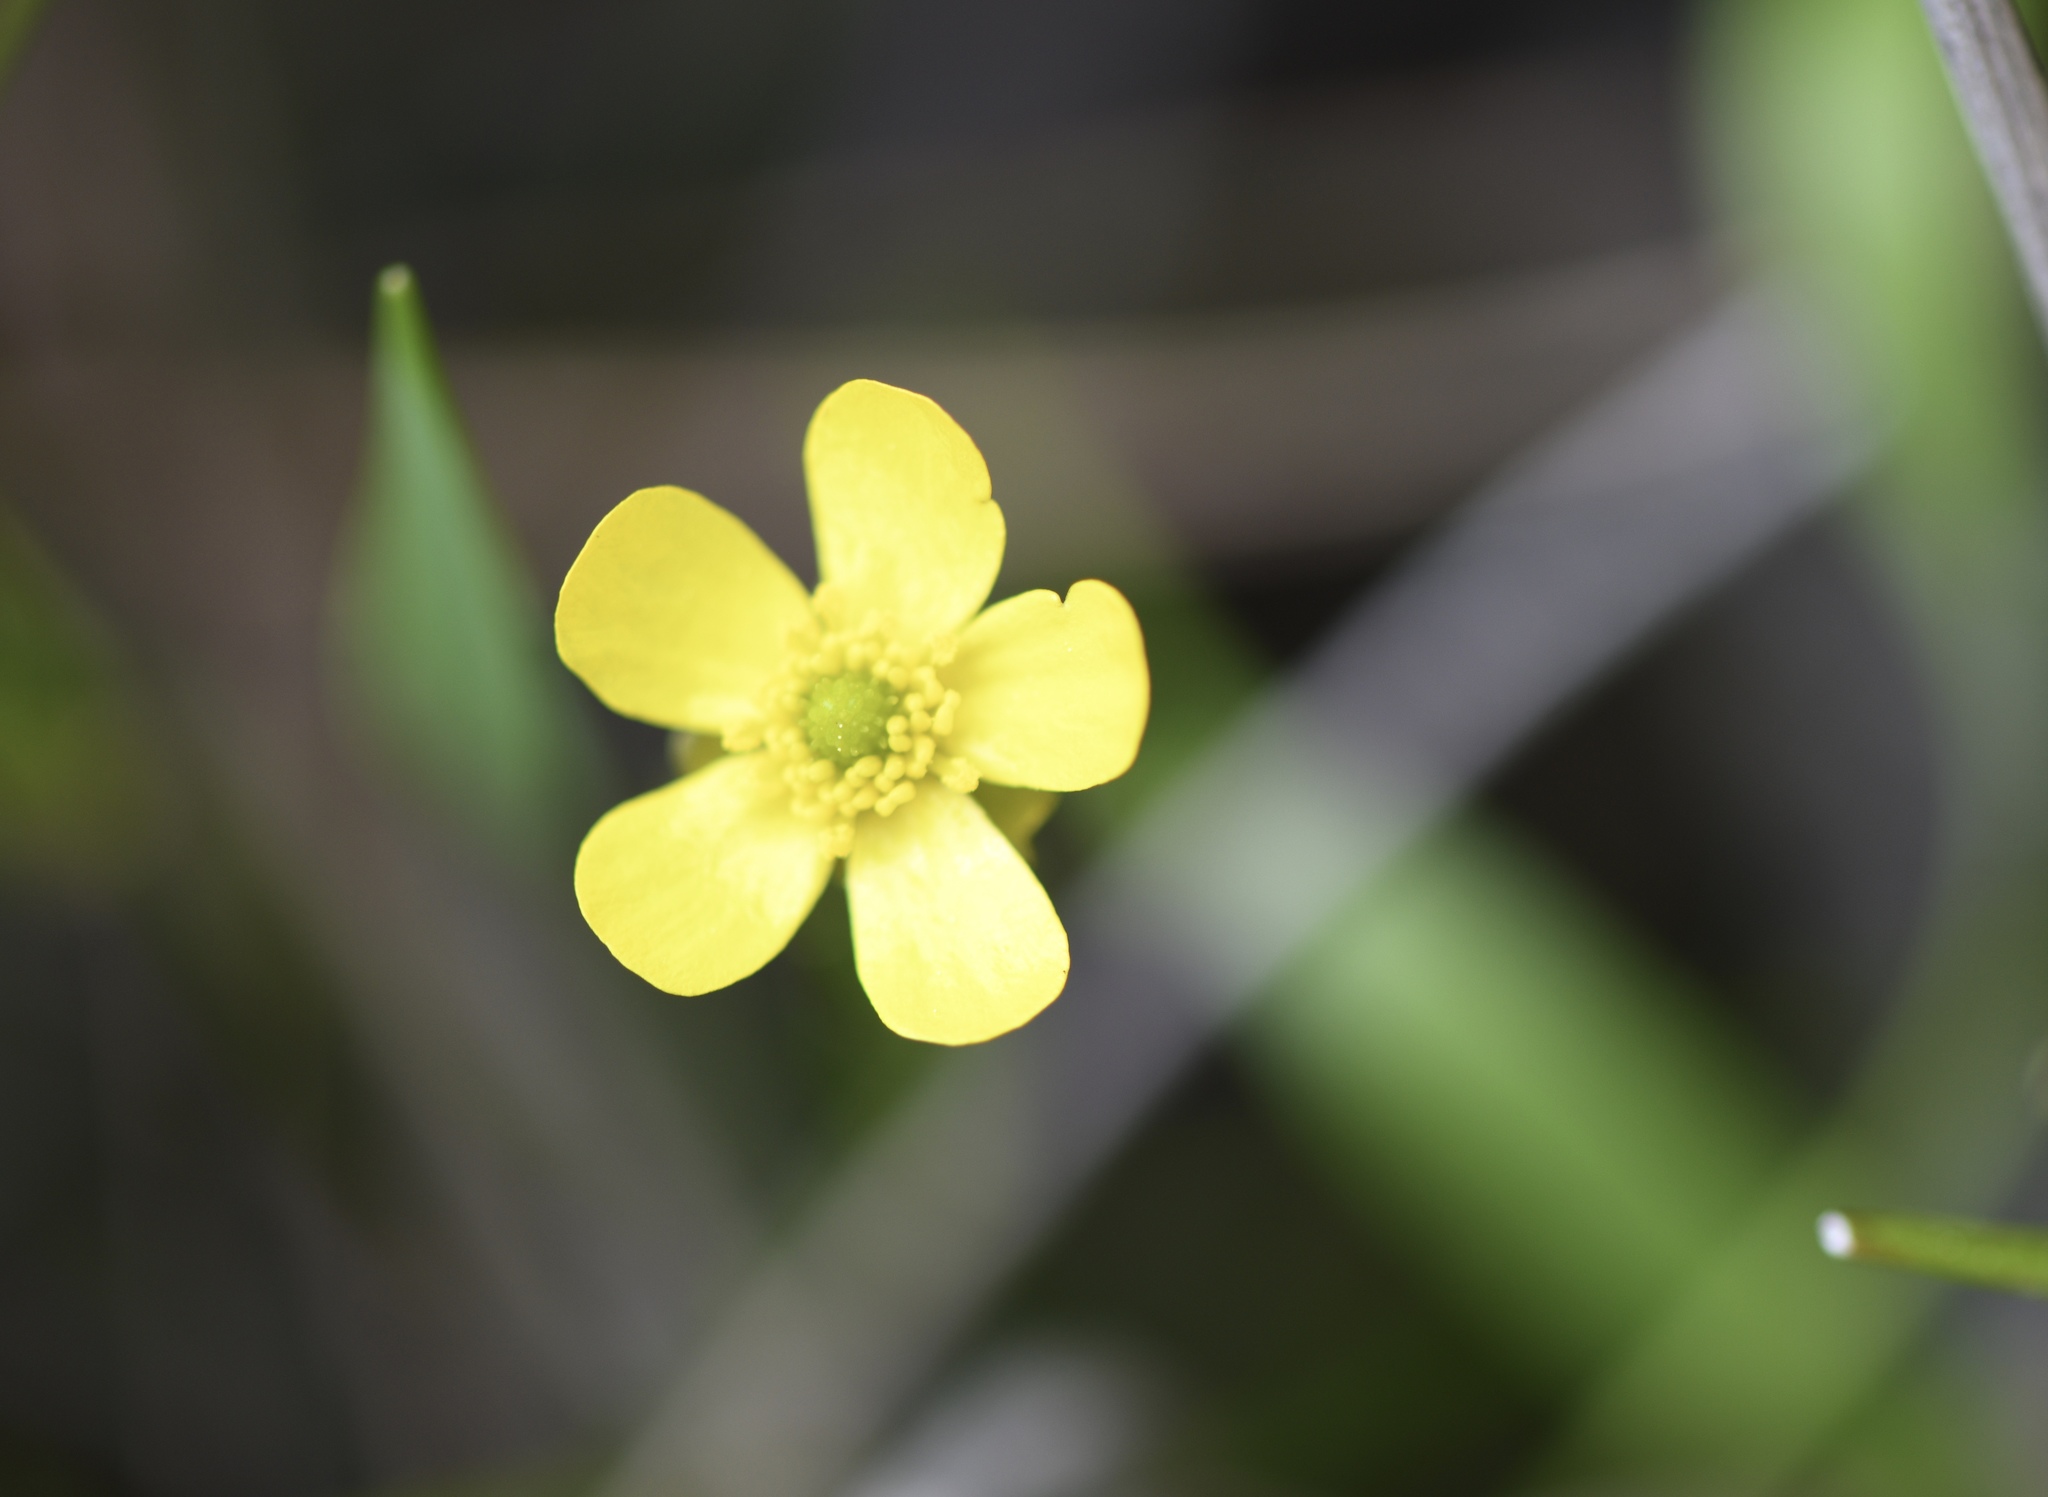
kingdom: Plantae
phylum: Tracheophyta
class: Magnoliopsida
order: Ranunculales
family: Ranunculaceae
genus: Ranunculus
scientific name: Ranunculus flammula
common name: Lesser spearwort
